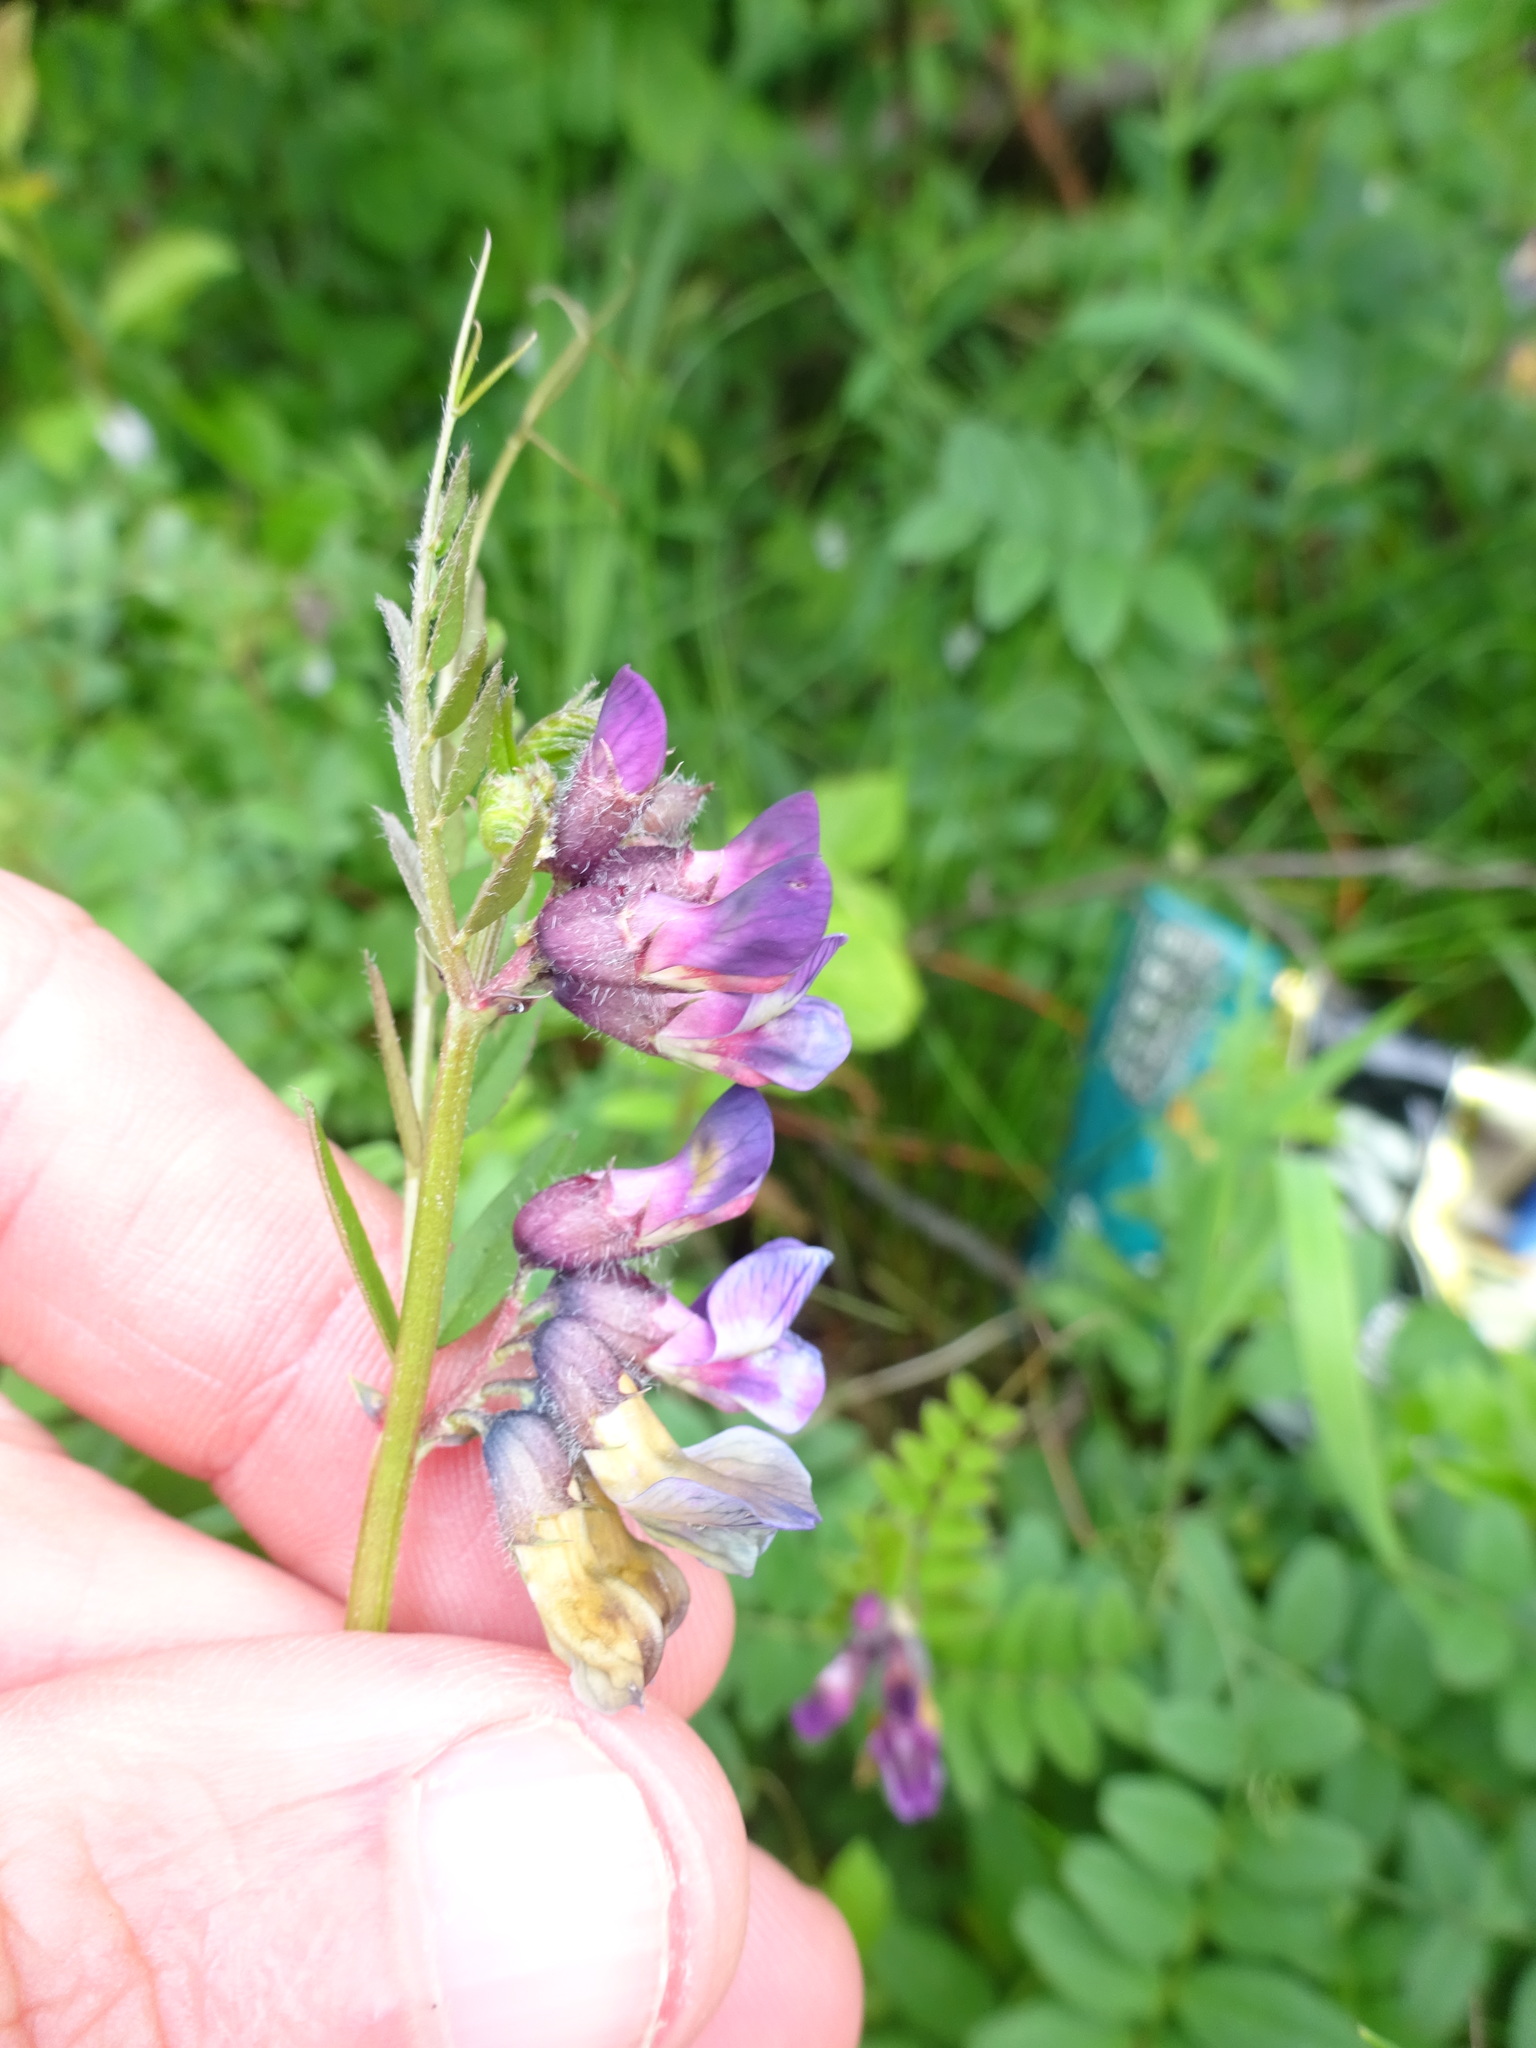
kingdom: Plantae
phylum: Tracheophyta
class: Magnoliopsida
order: Fabales
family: Fabaceae
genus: Vicia
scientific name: Vicia sepium
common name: Bush vetch
